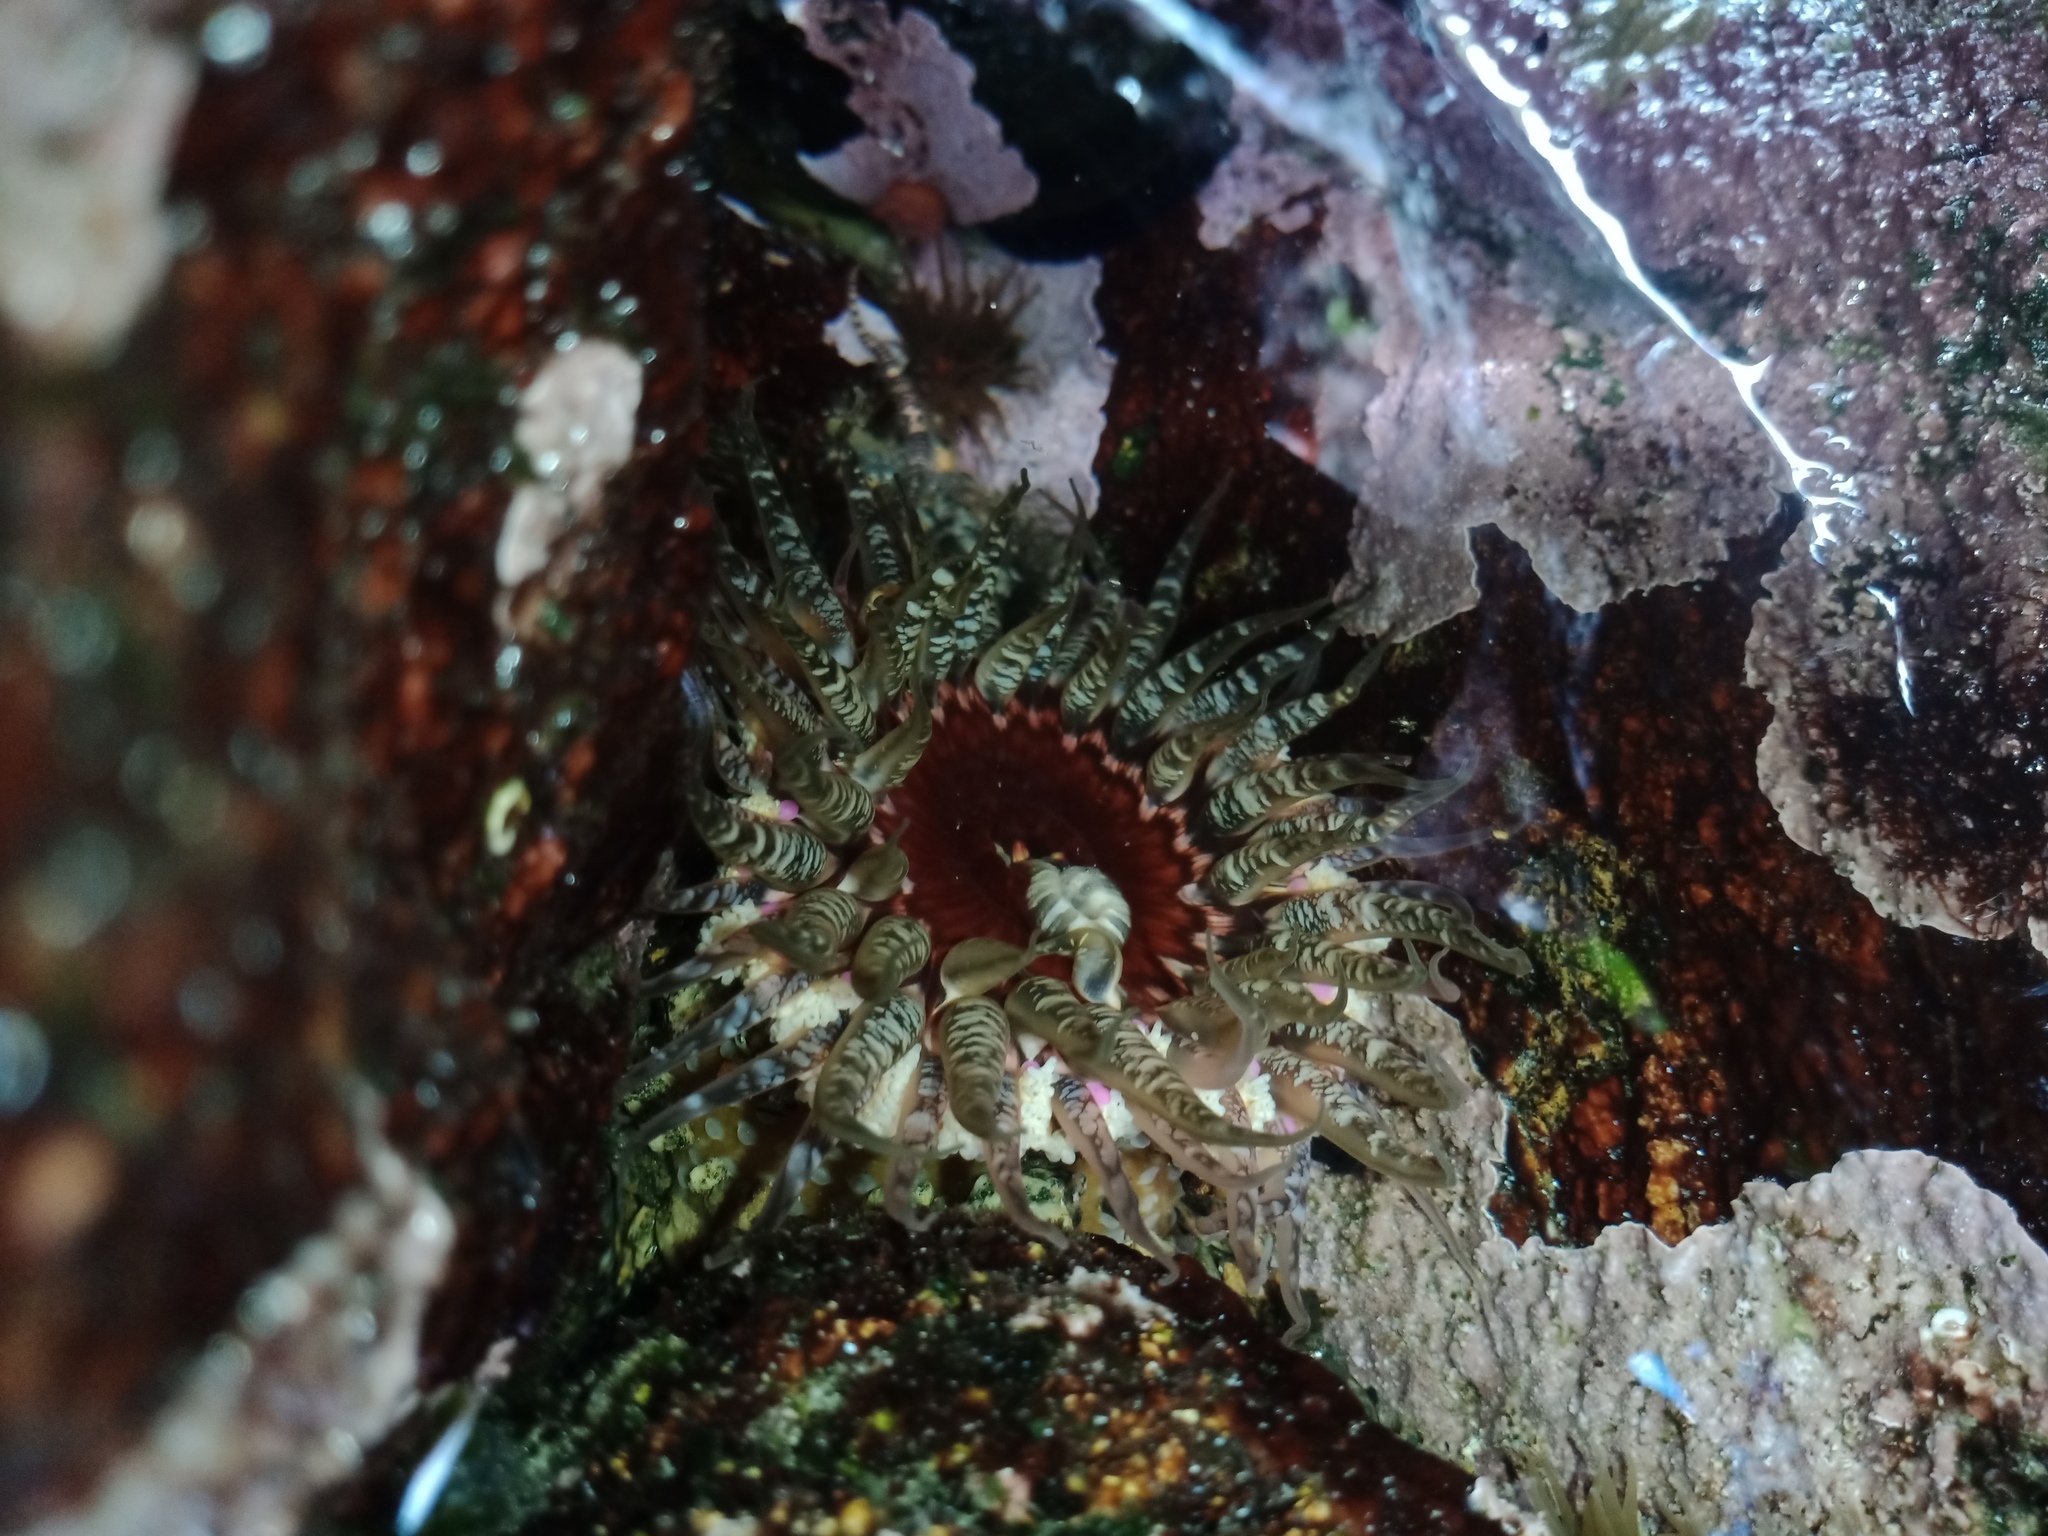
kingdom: Animalia
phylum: Cnidaria
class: Anthozoa
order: Actiniaria
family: Actiniidae
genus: Oulactis
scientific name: Oulactis muscosa
